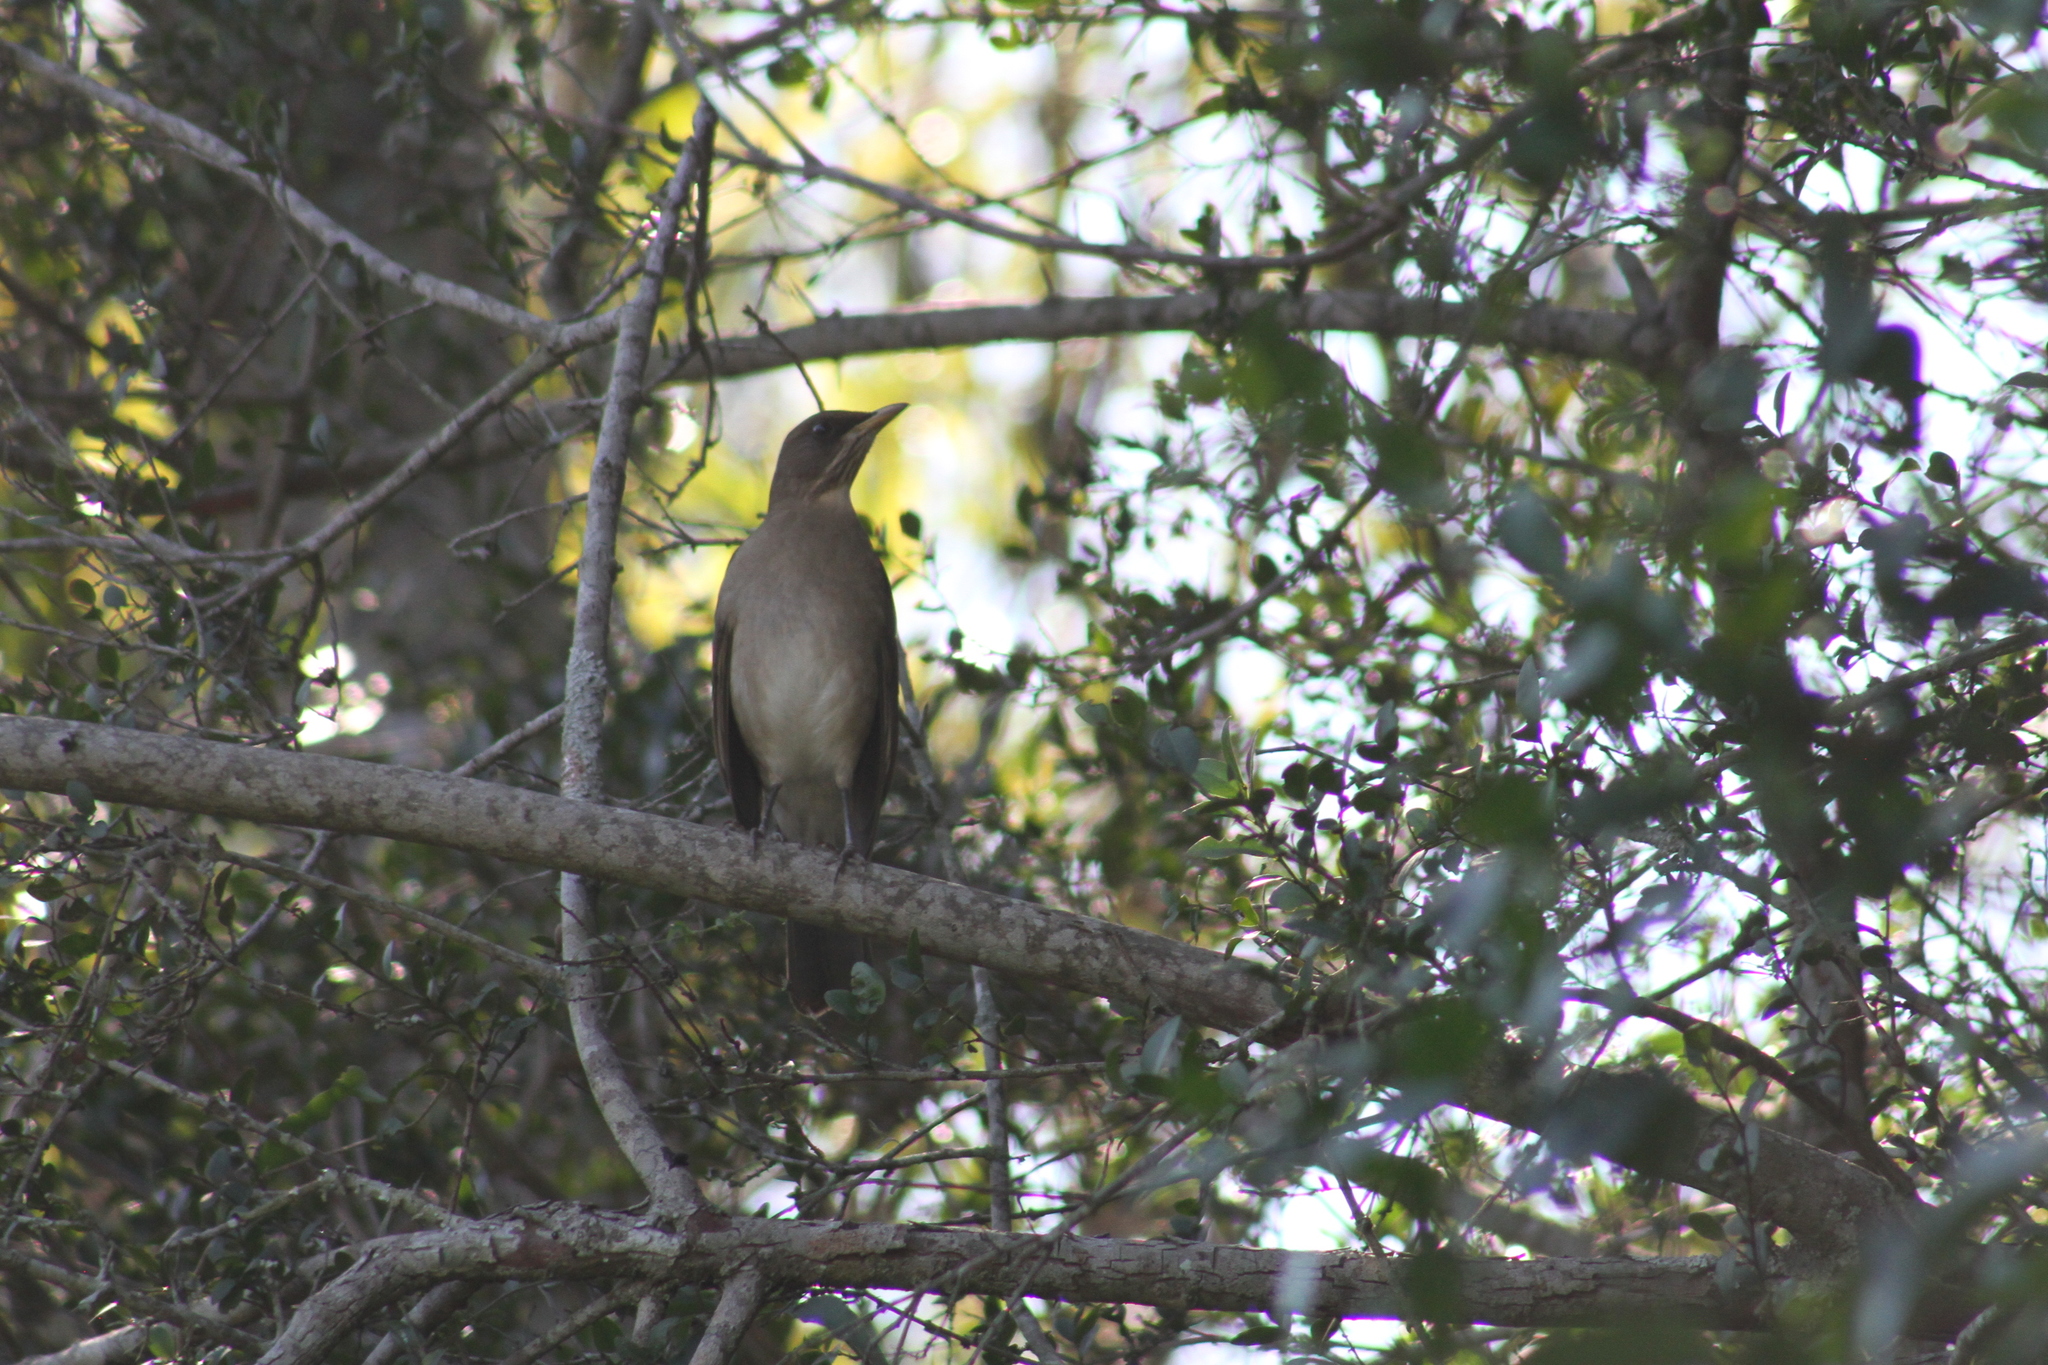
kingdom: Animalia
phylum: Chordata
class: Aves
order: Passeriformes
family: Turdidae
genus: Turdus
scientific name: Turdus amaurochalinus
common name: Creamy-bellied thrush
